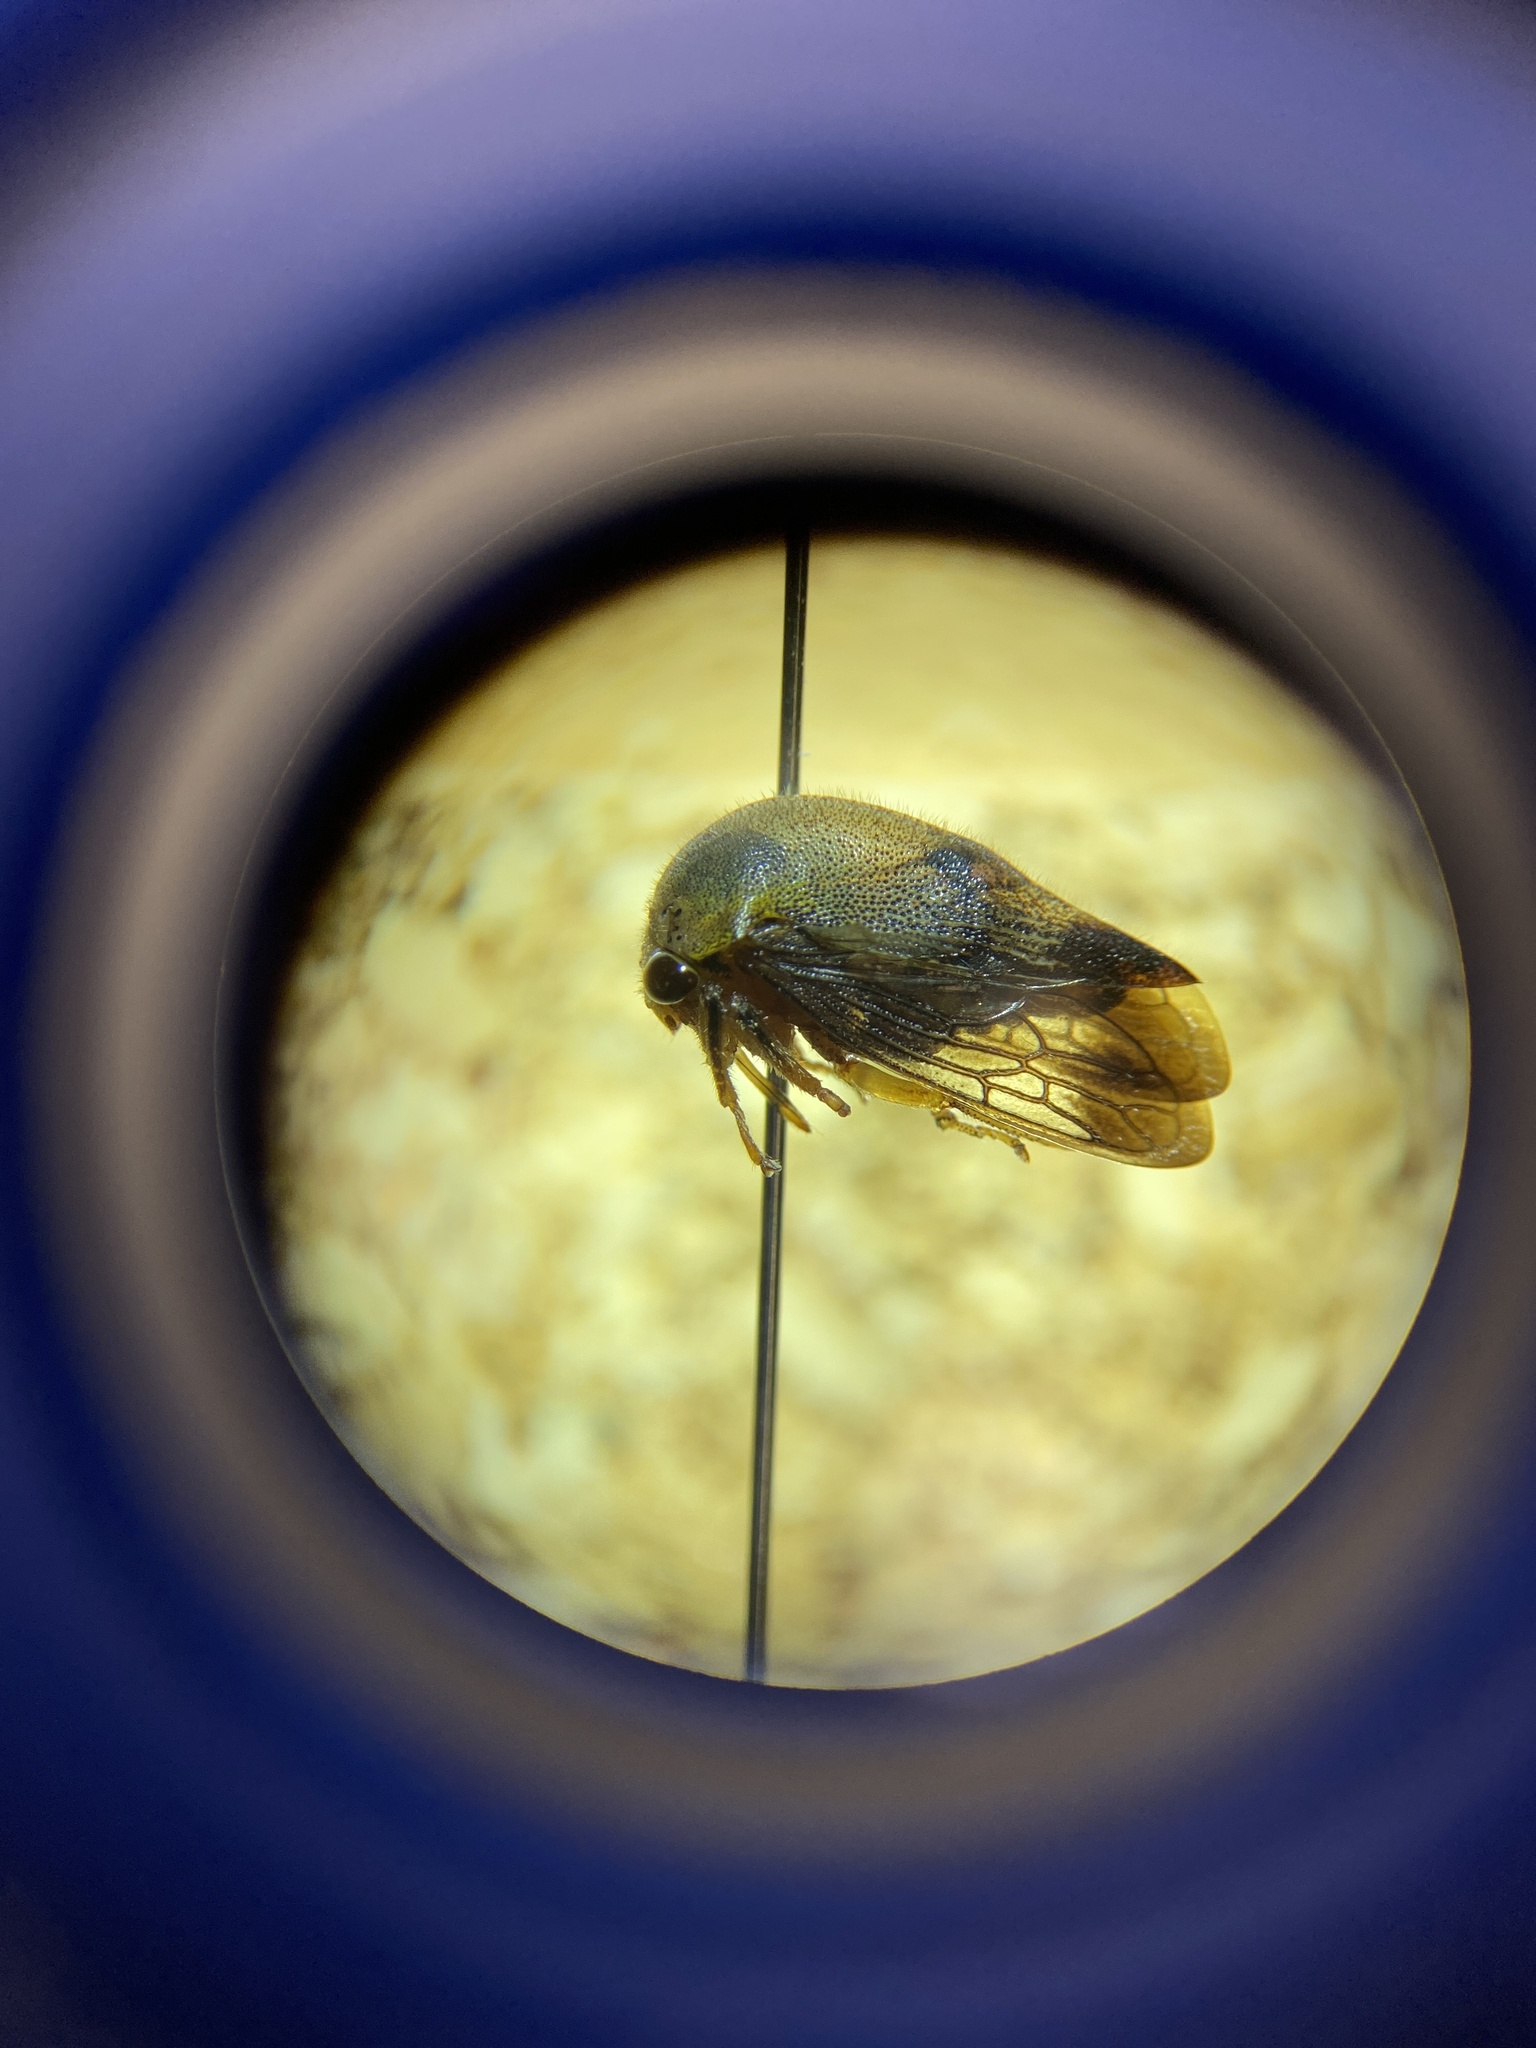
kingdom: Animalia
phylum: Arthropoda
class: Insecta
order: Hemiptera
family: Membracidae
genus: Carynota
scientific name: Carynota mera
